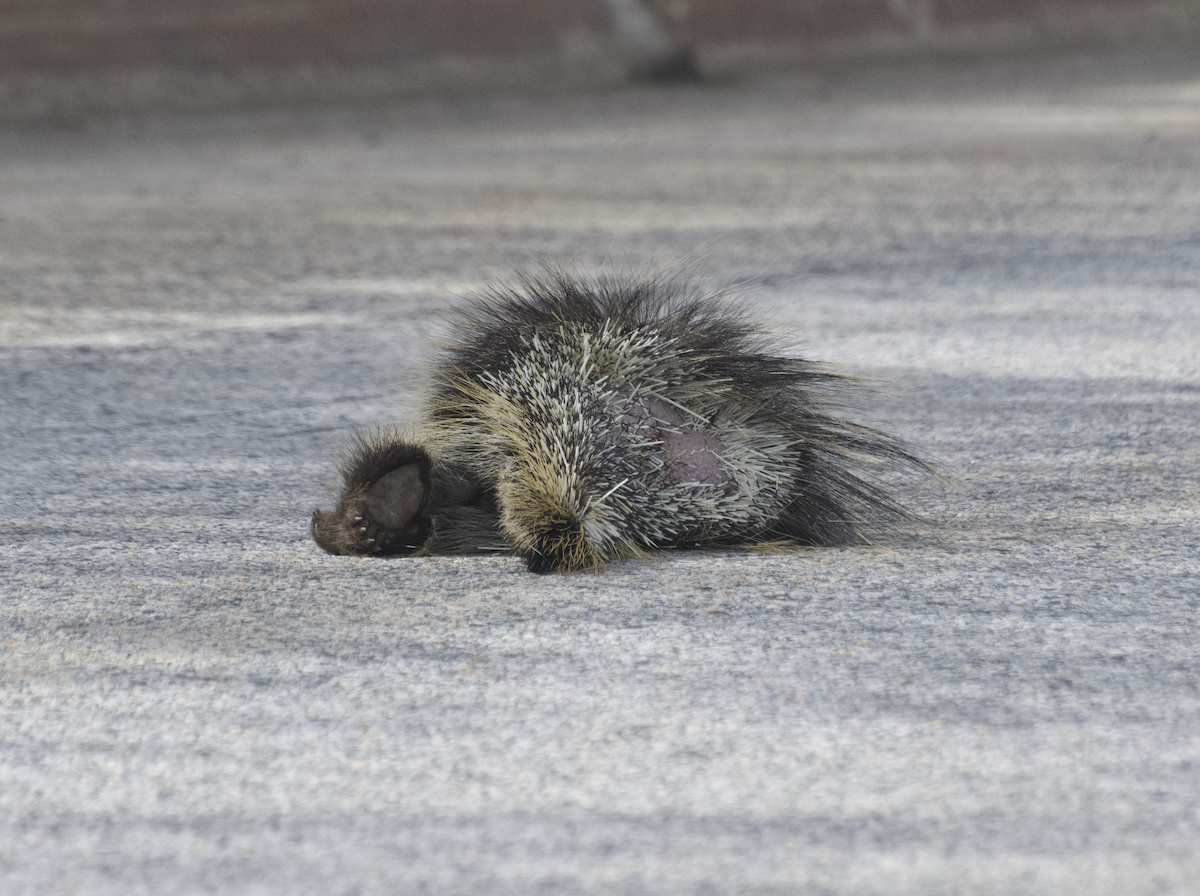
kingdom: Animalia
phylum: Chordata
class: Mammalia
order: Rodentia
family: Erethizontidae
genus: Erethizon
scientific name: Erethizon dorsatus
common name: North american porcupine
